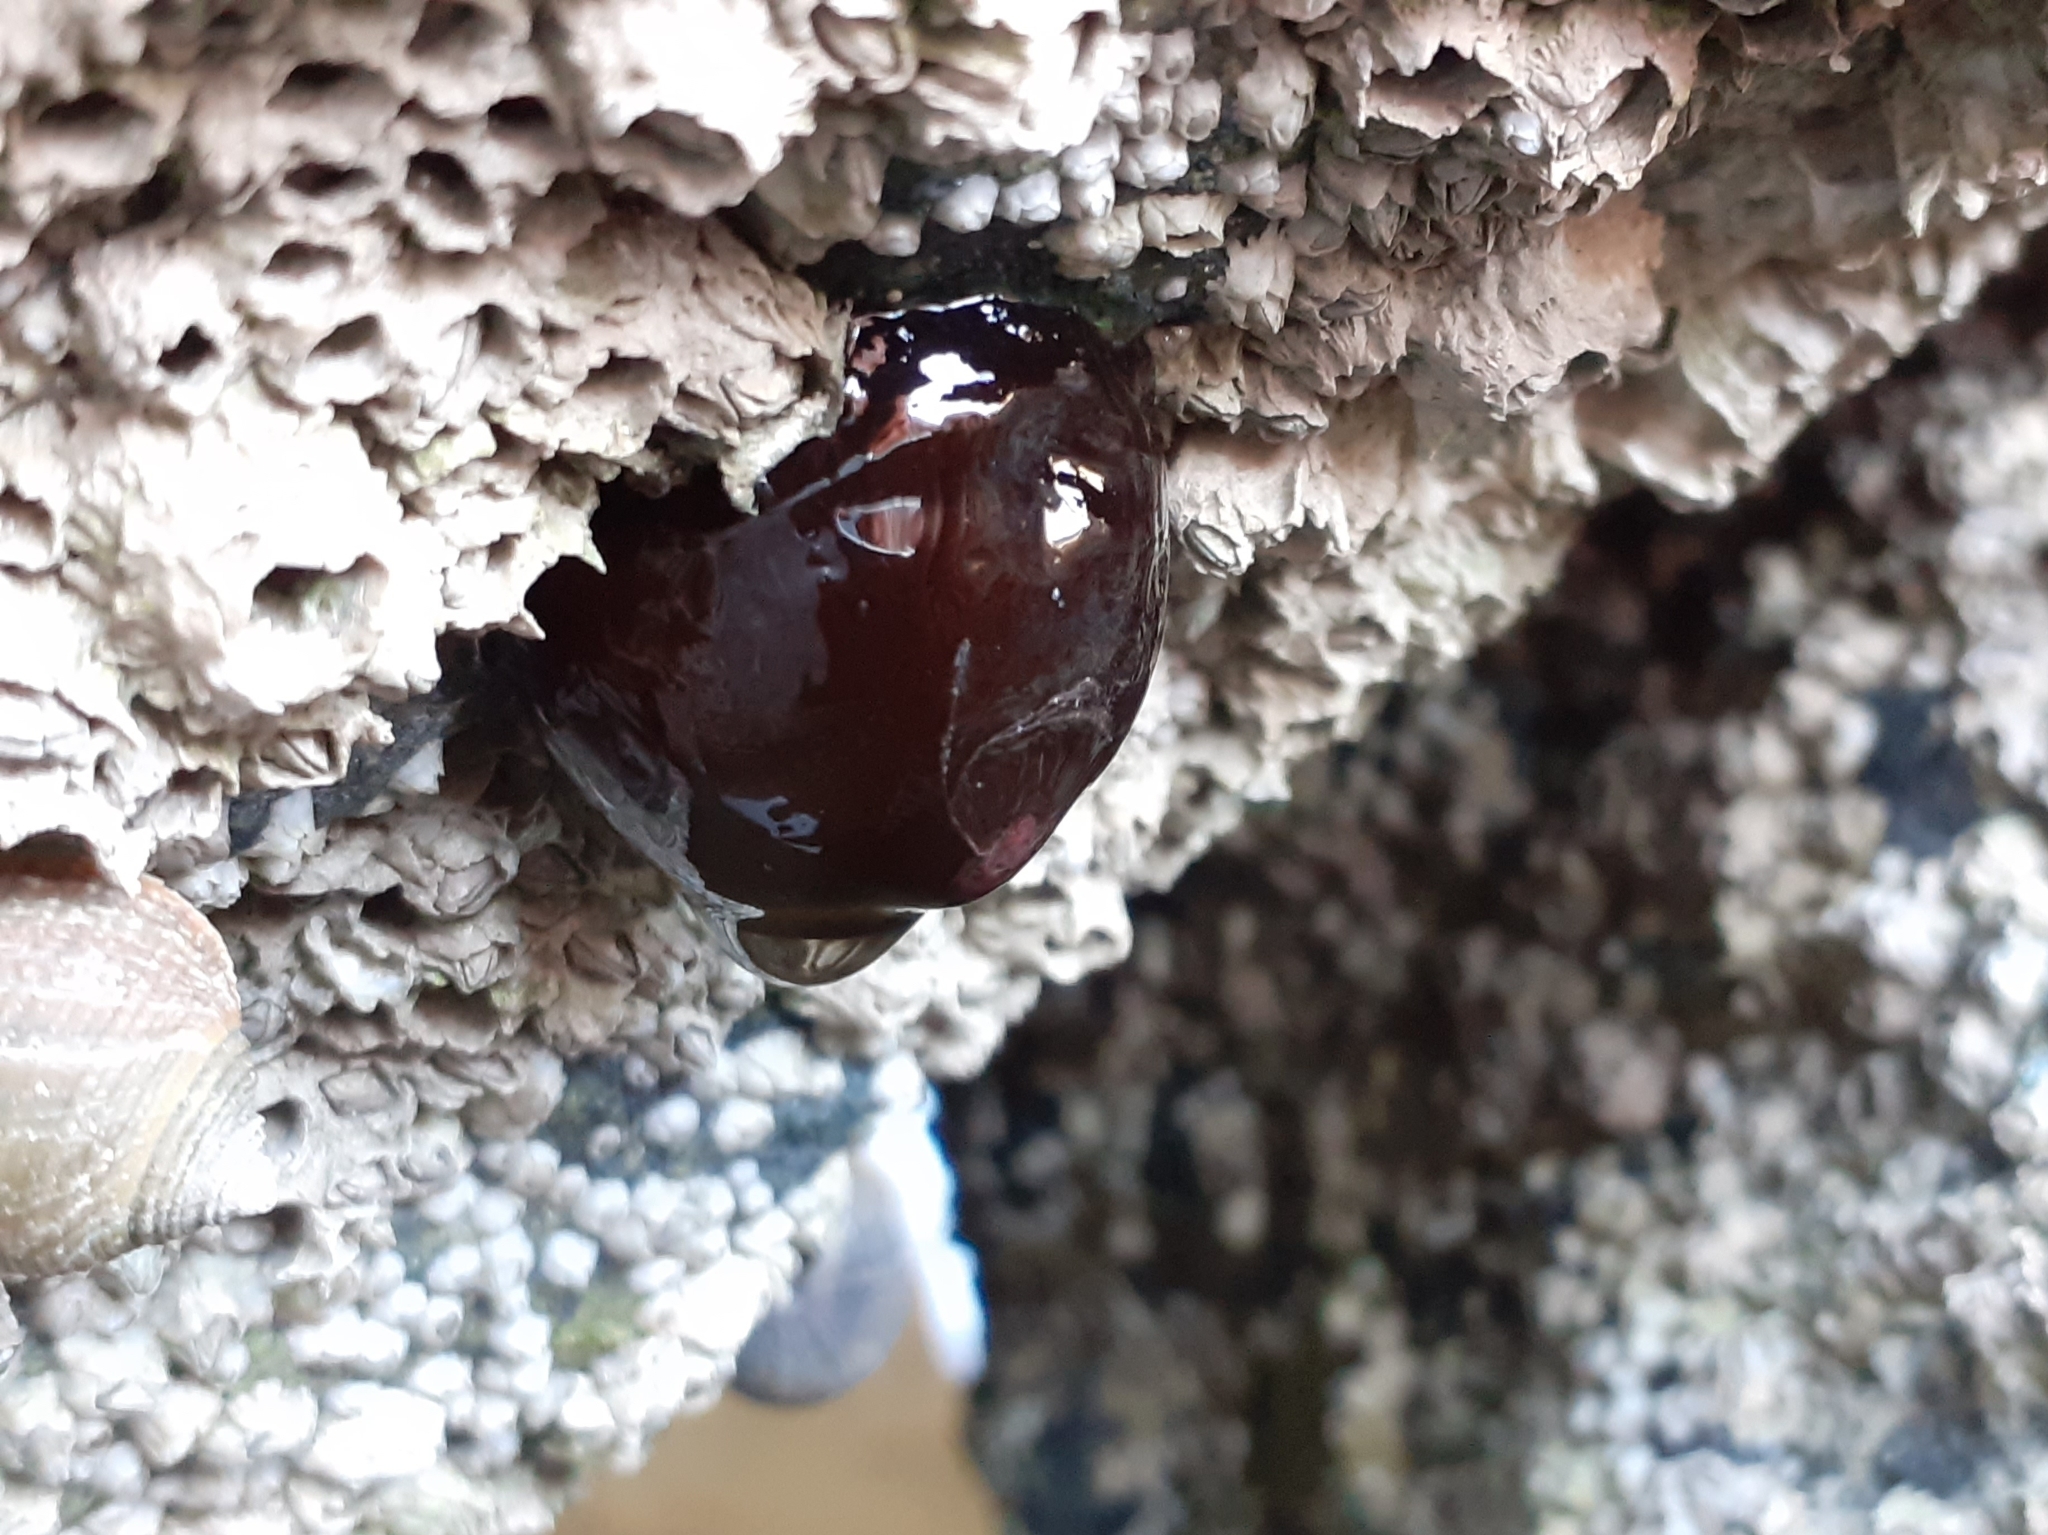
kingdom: Animalia
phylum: Cnidaria
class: Anthozoa
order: Actiniaria
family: Actiniidae
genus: Actinia
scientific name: Actinia equina
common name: Beadlet anemone
